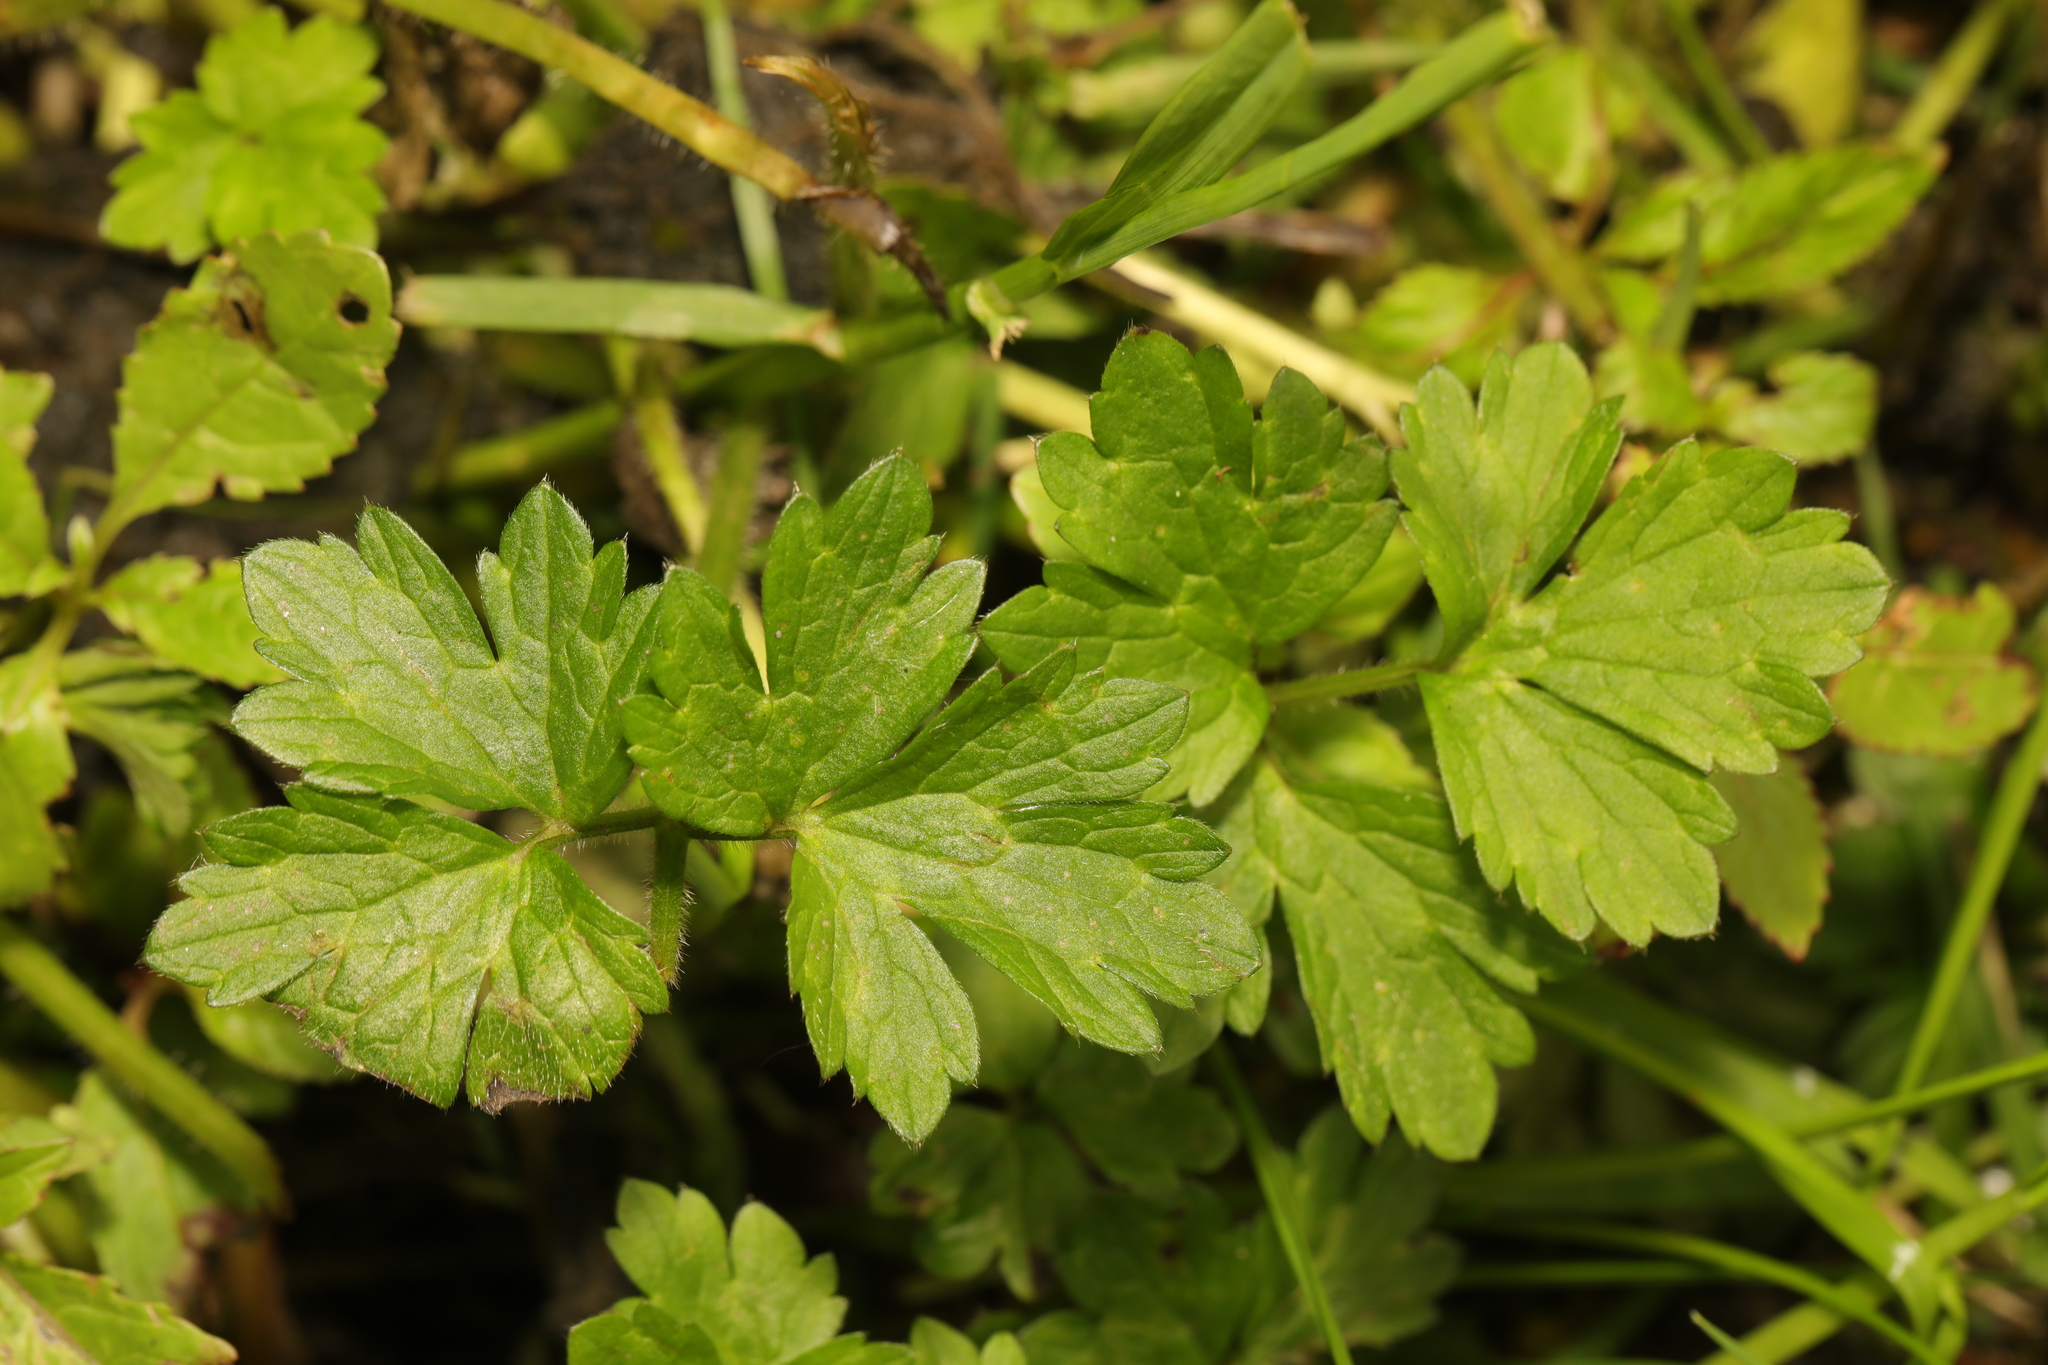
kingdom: Plantae
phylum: Tracheophyta
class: Magnoliopsida
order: Ranunculales
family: Ranunculaceae
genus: Ranunculus
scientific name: Ranunculus repens
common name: Creeping buttercup
